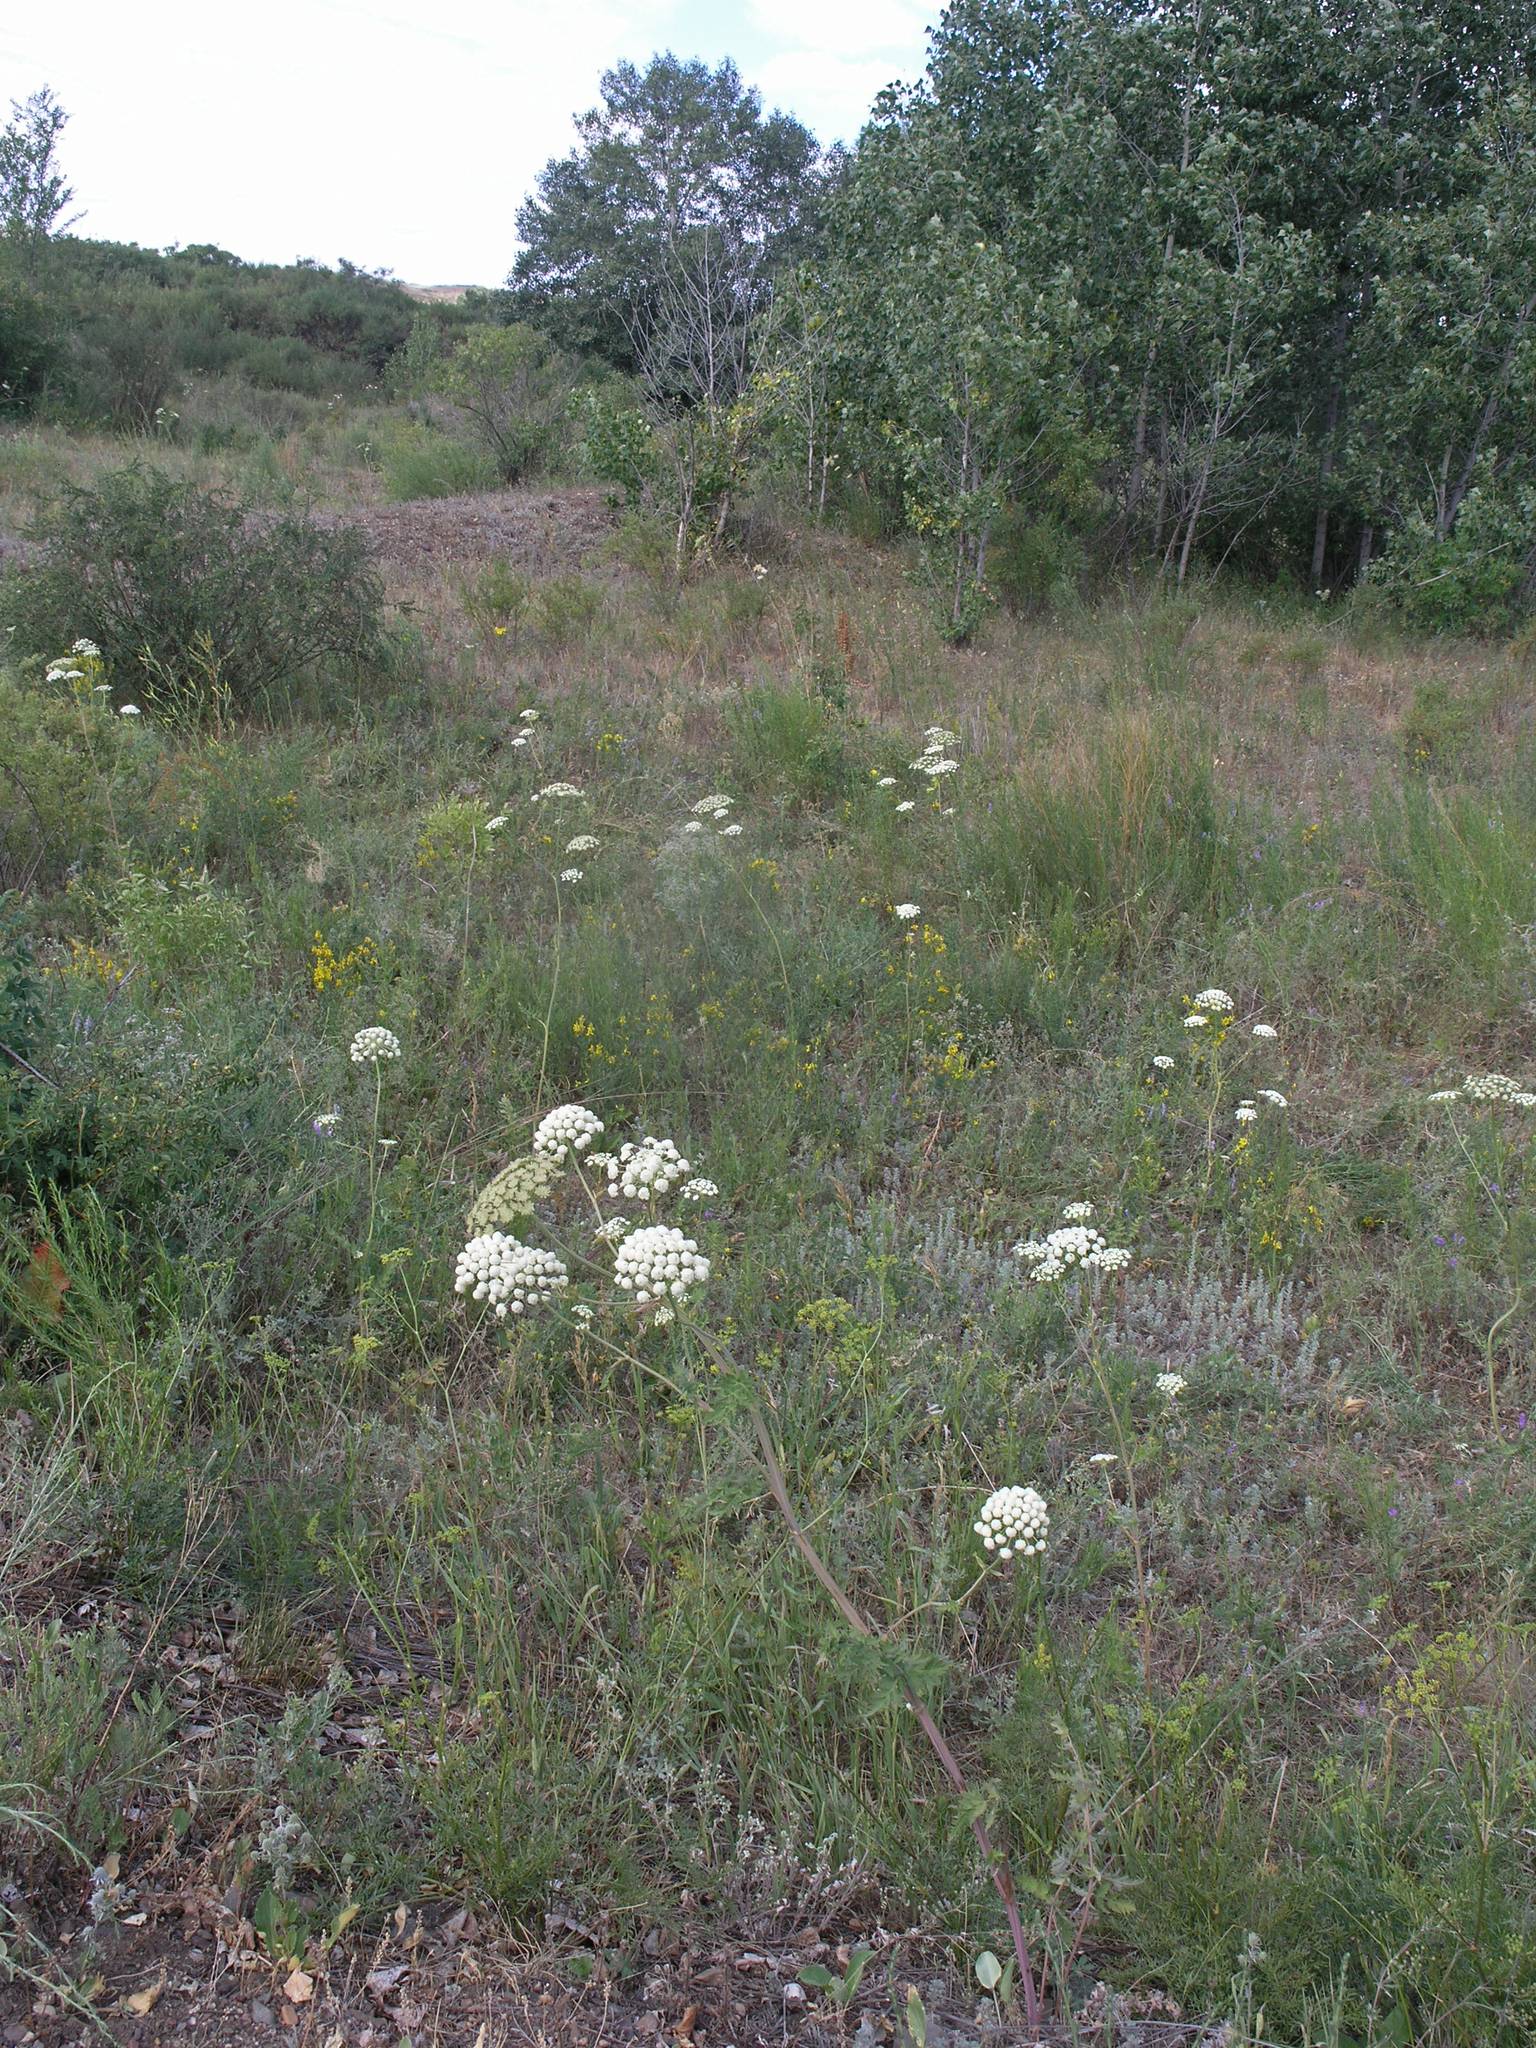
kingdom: Plantae
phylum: Tracheophyta
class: Magnoliopsida
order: Apiales
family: Apiaceae
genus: Seseli
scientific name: Seseli libanotis
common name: Mooncarrot
